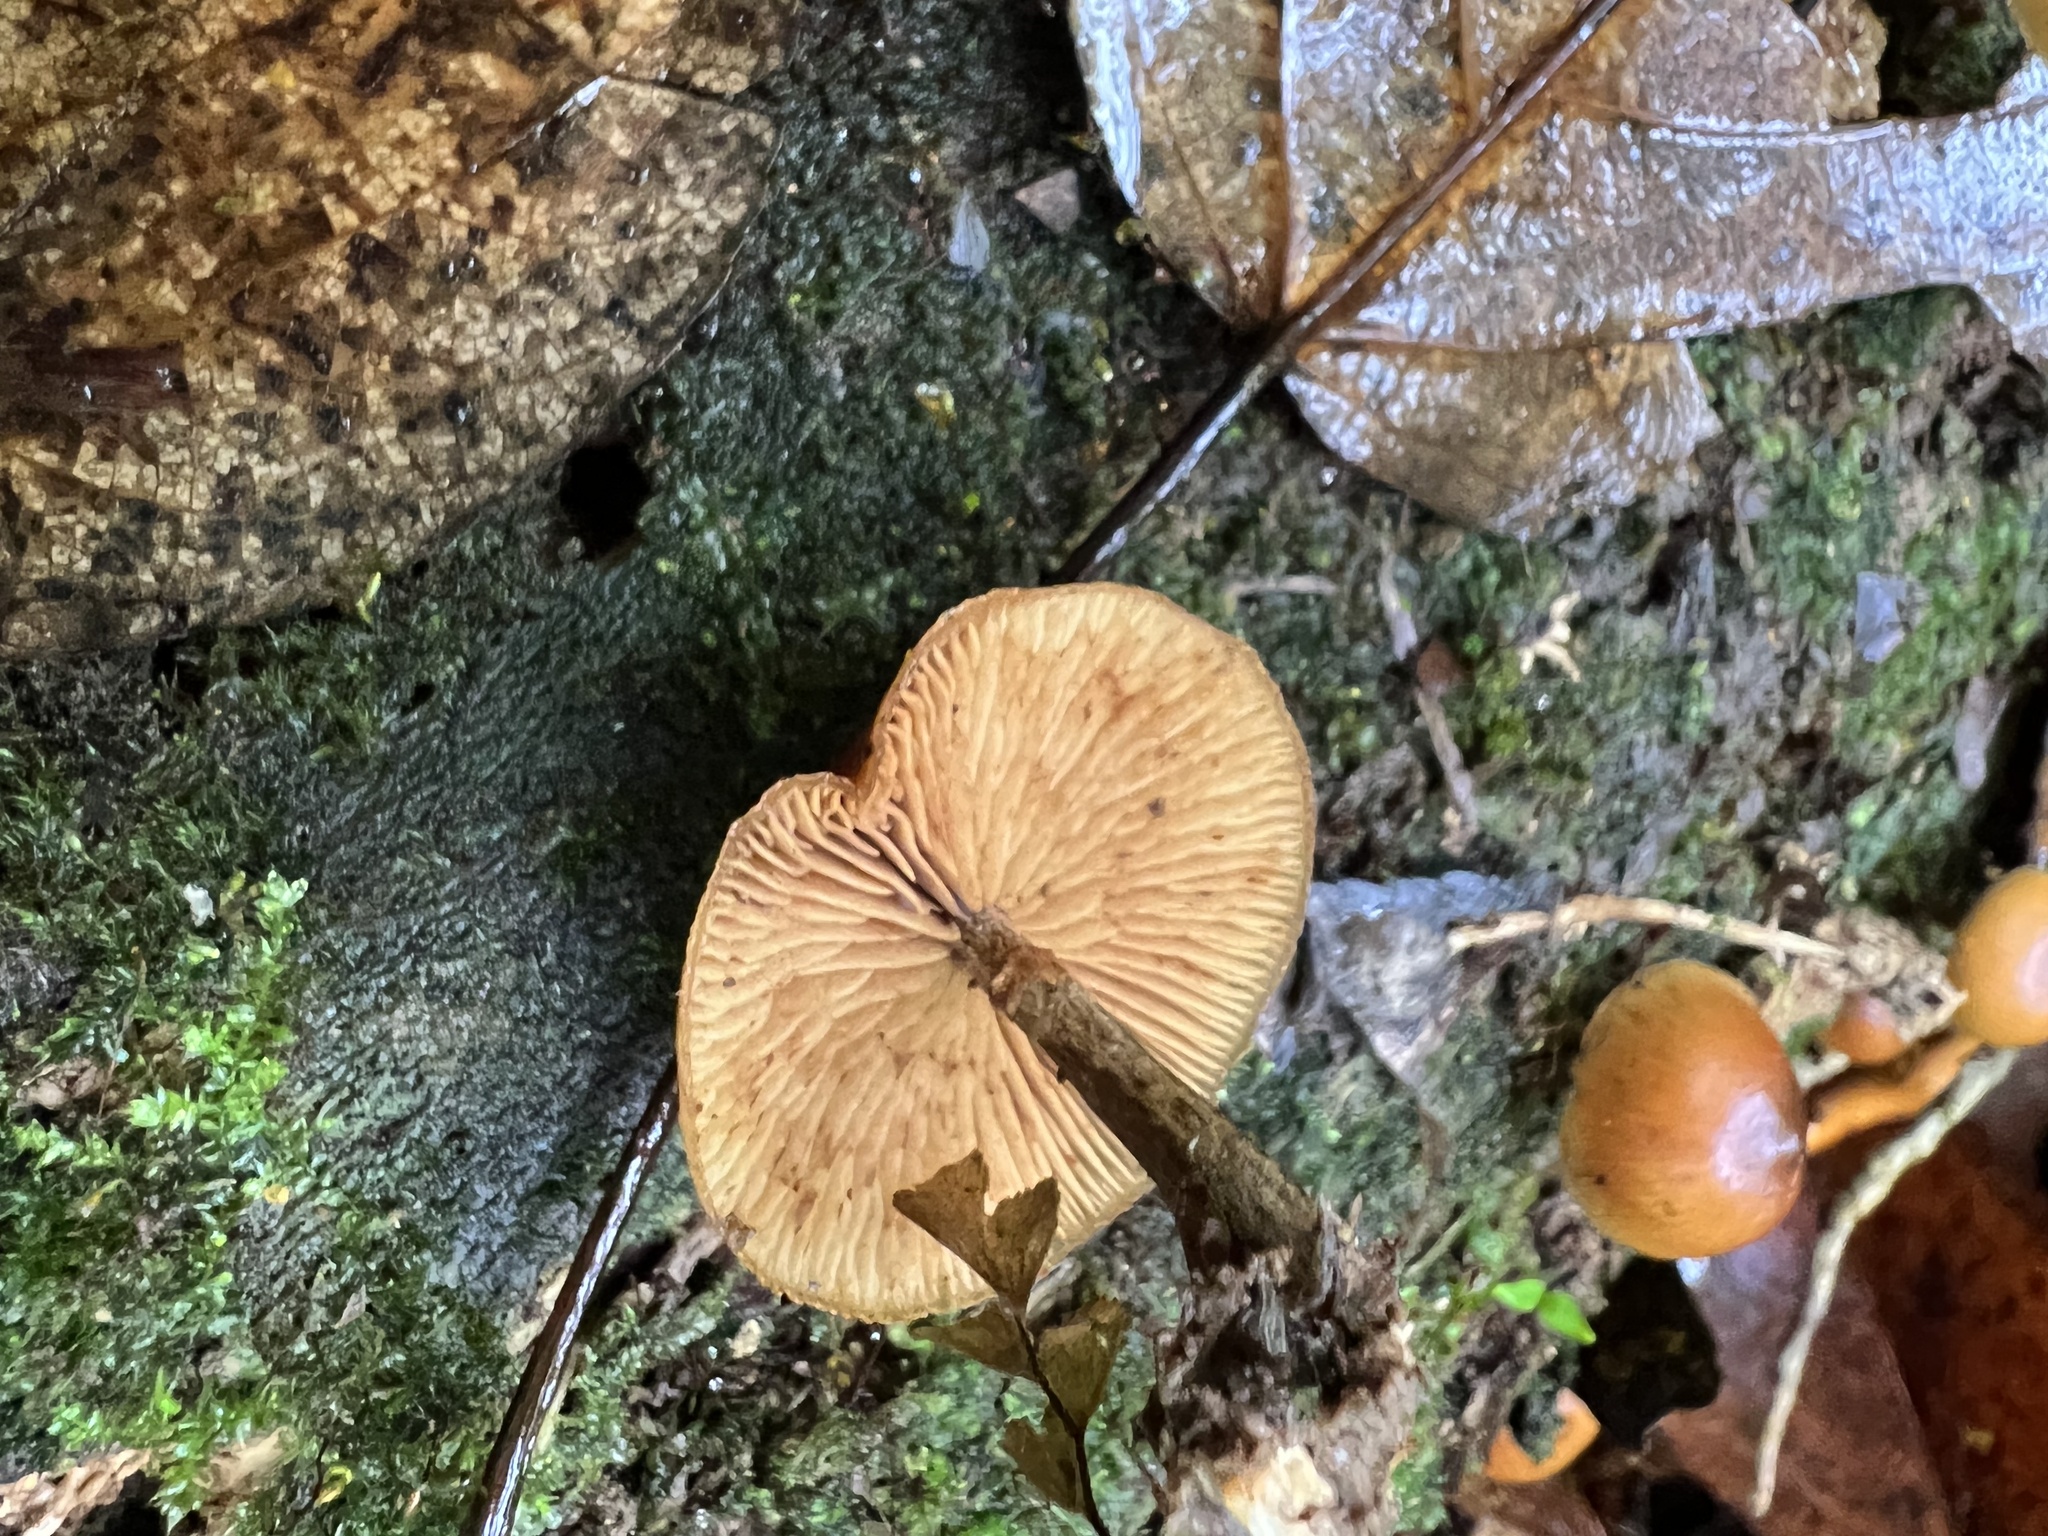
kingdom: Fungi
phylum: Basidiomycota
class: Agaricomycetes
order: Agaricales
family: Hymenogastraceae
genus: Galerina
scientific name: Galerina patagonica
